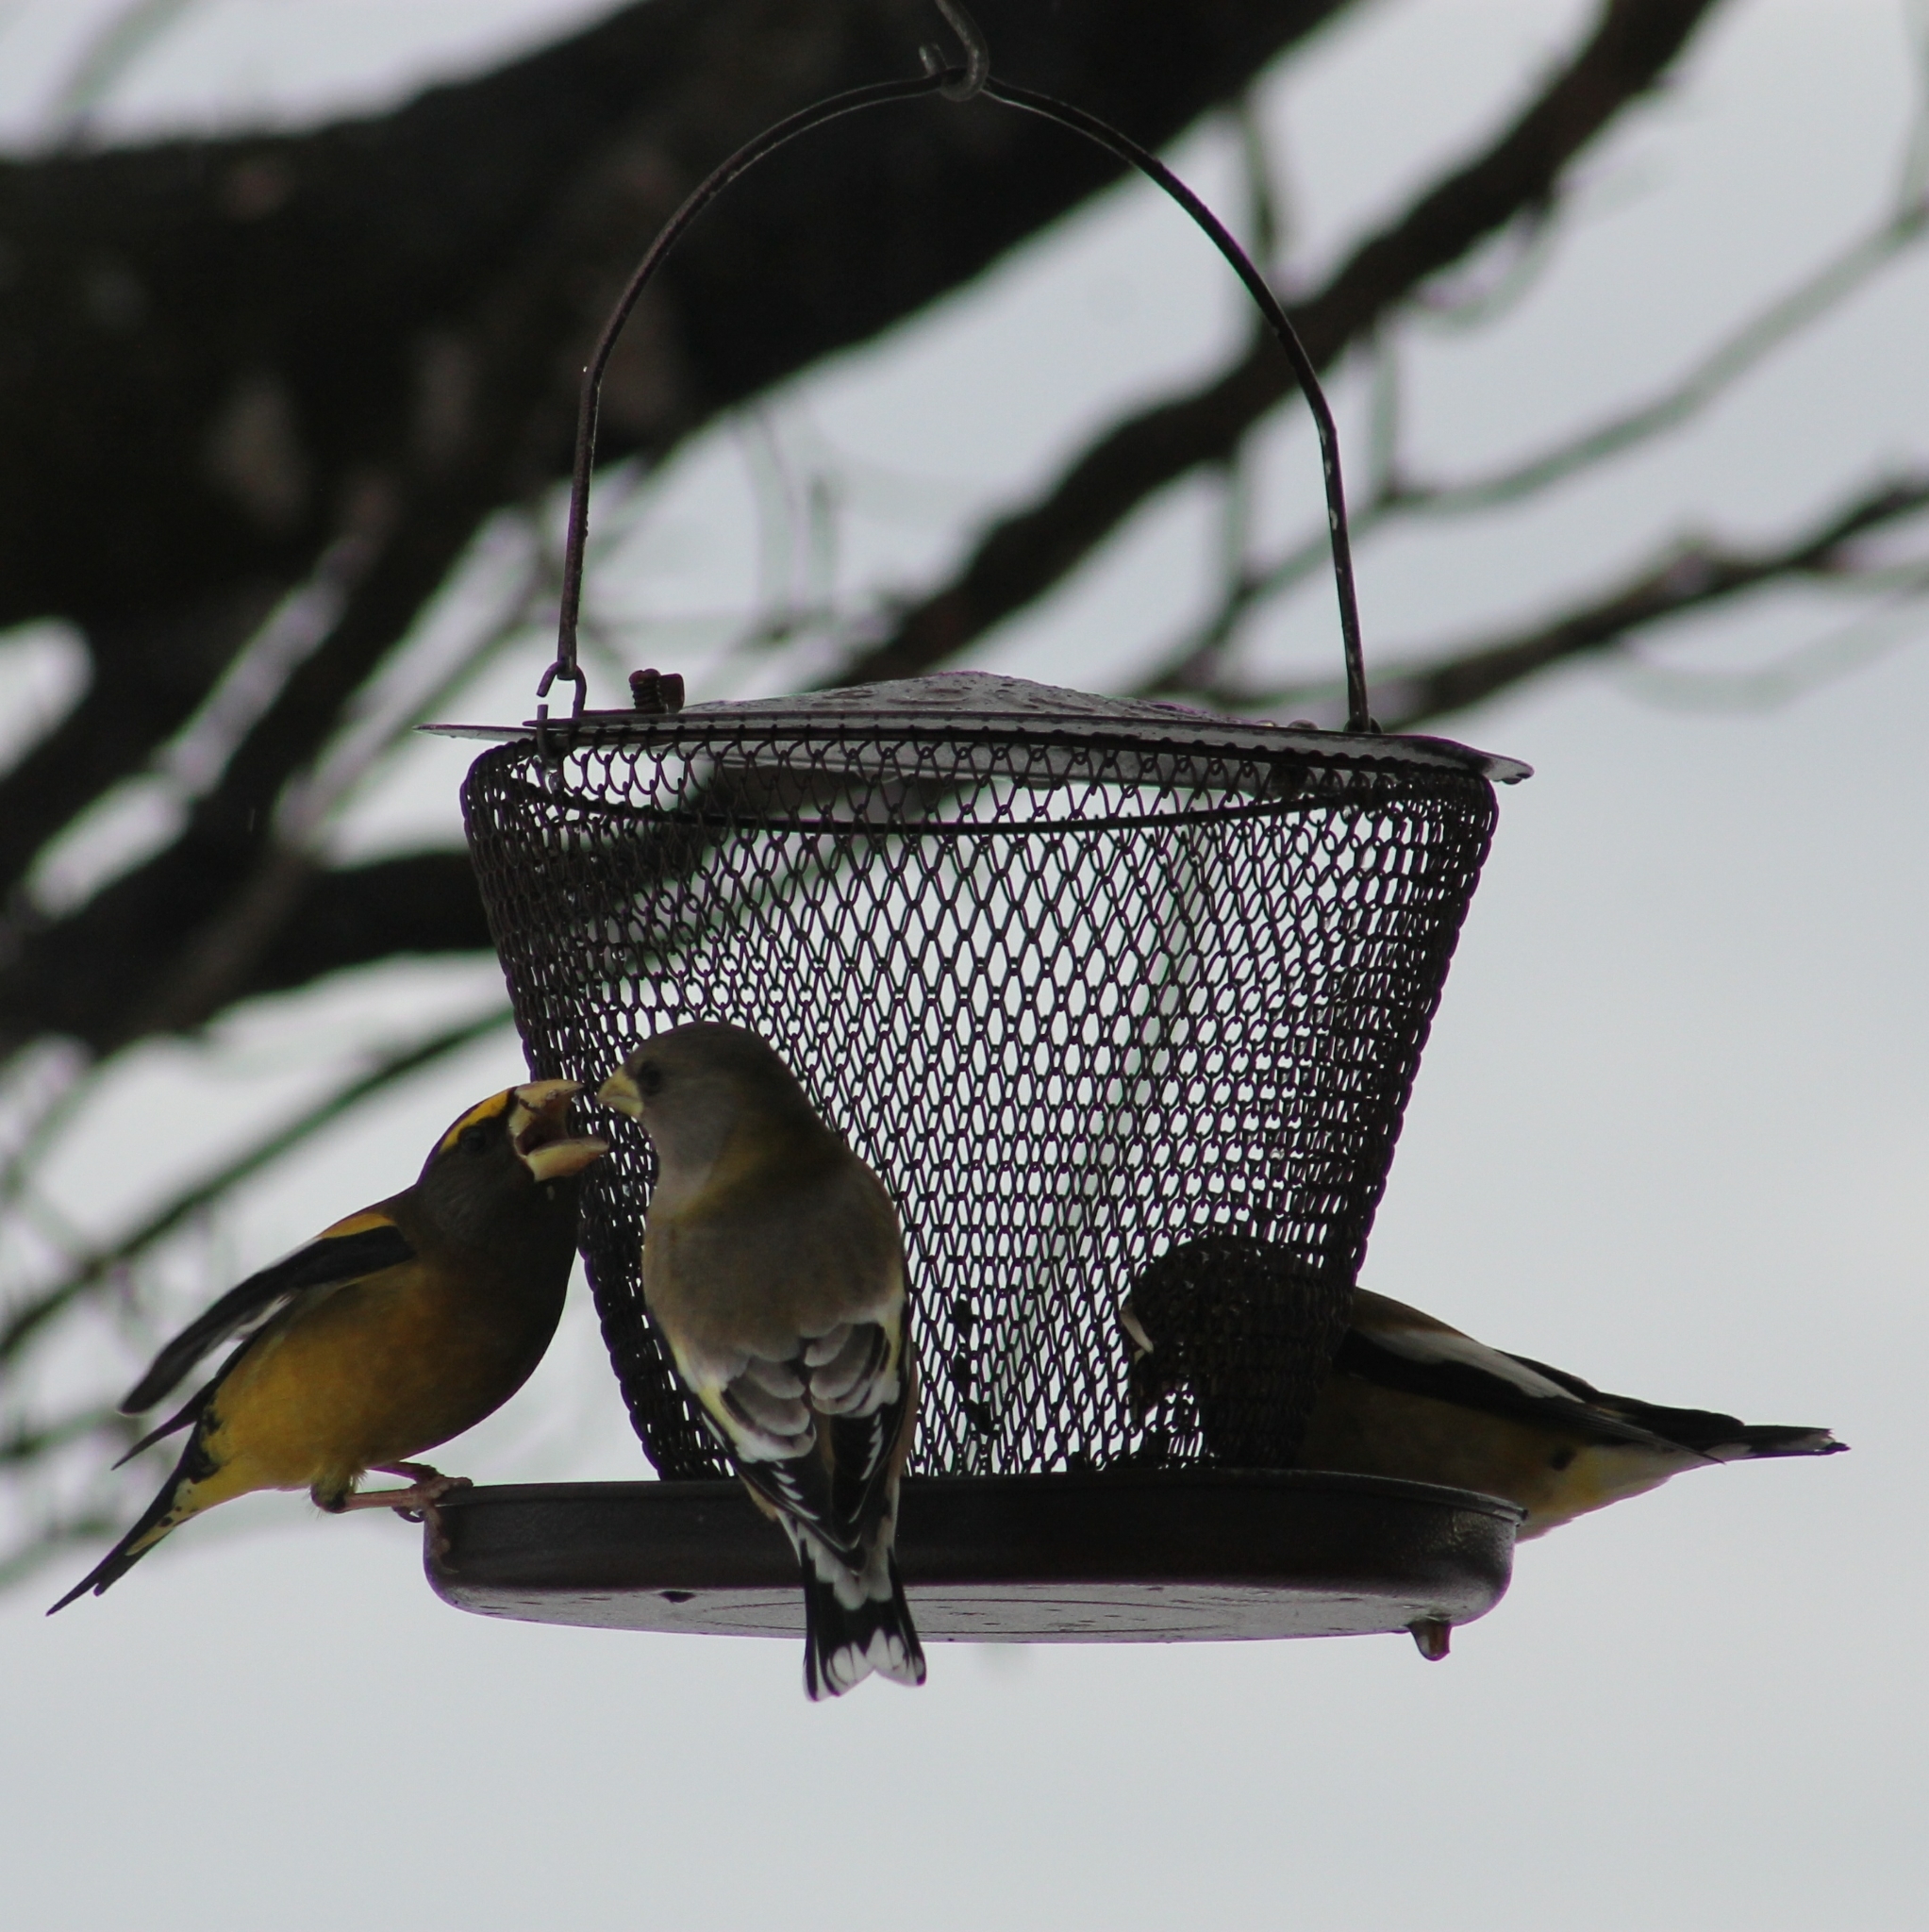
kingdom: Animalia
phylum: Chordata
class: Aves
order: Passeriformes
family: Fringillidae
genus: Hesperiphona
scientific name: Hesperiphona vespertina
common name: Evening grosbeak
